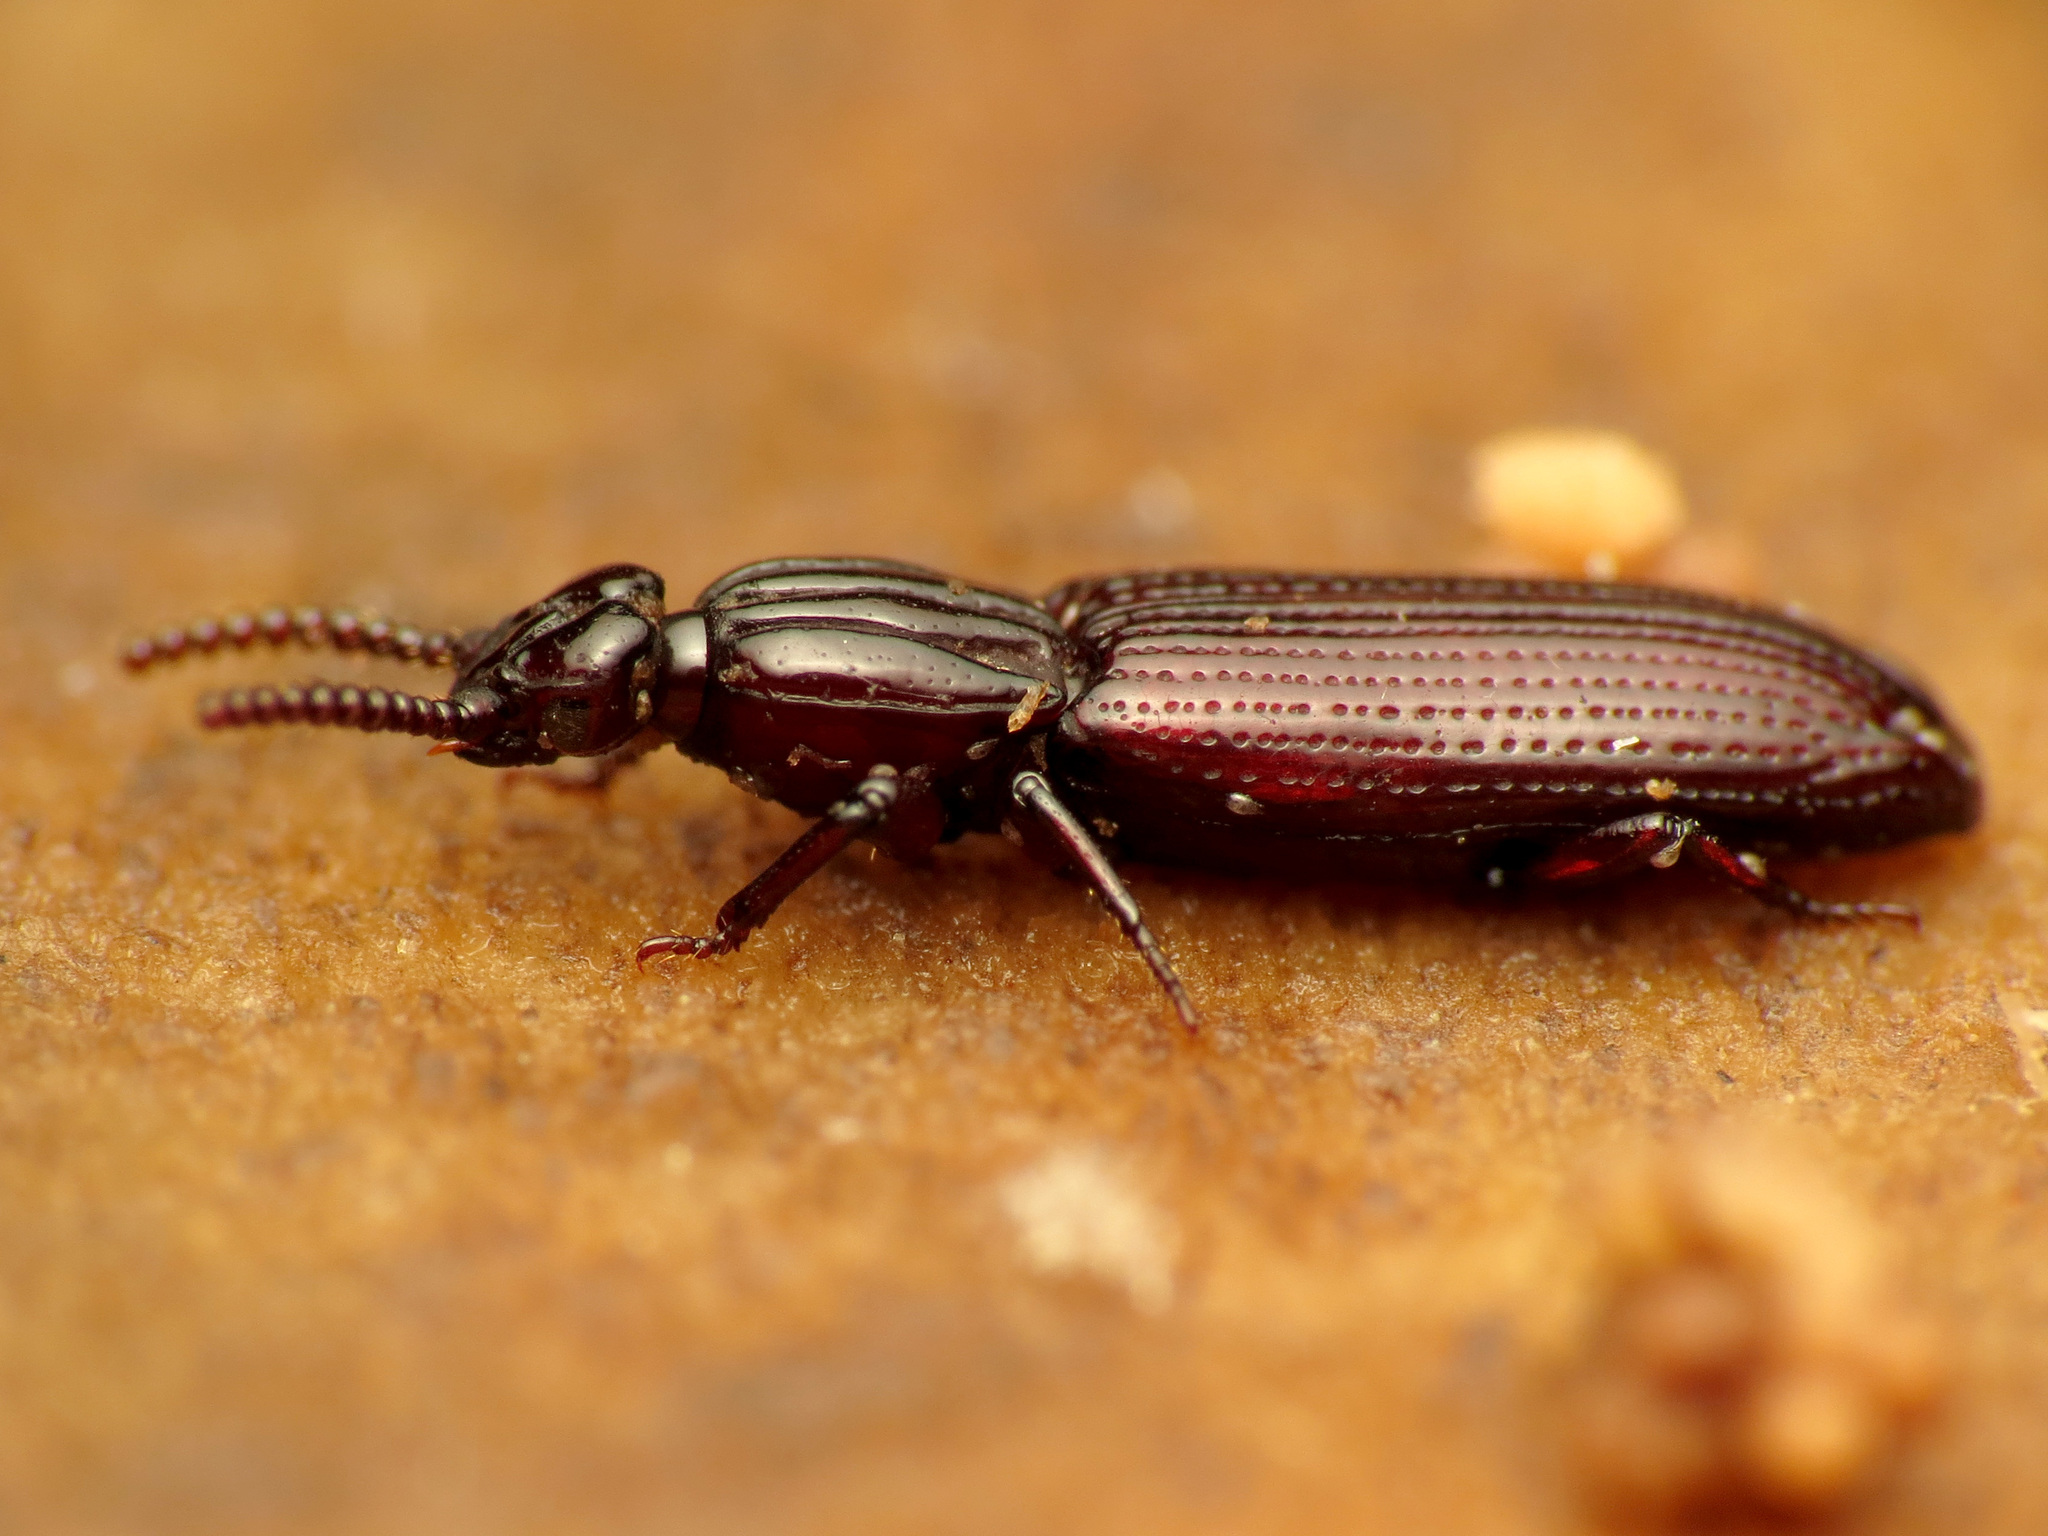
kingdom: Animalia
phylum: Arthropoda
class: Insecta
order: Coleoptera
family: Carabidae
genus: Omoglymmius
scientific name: Omoglymmius americanus
